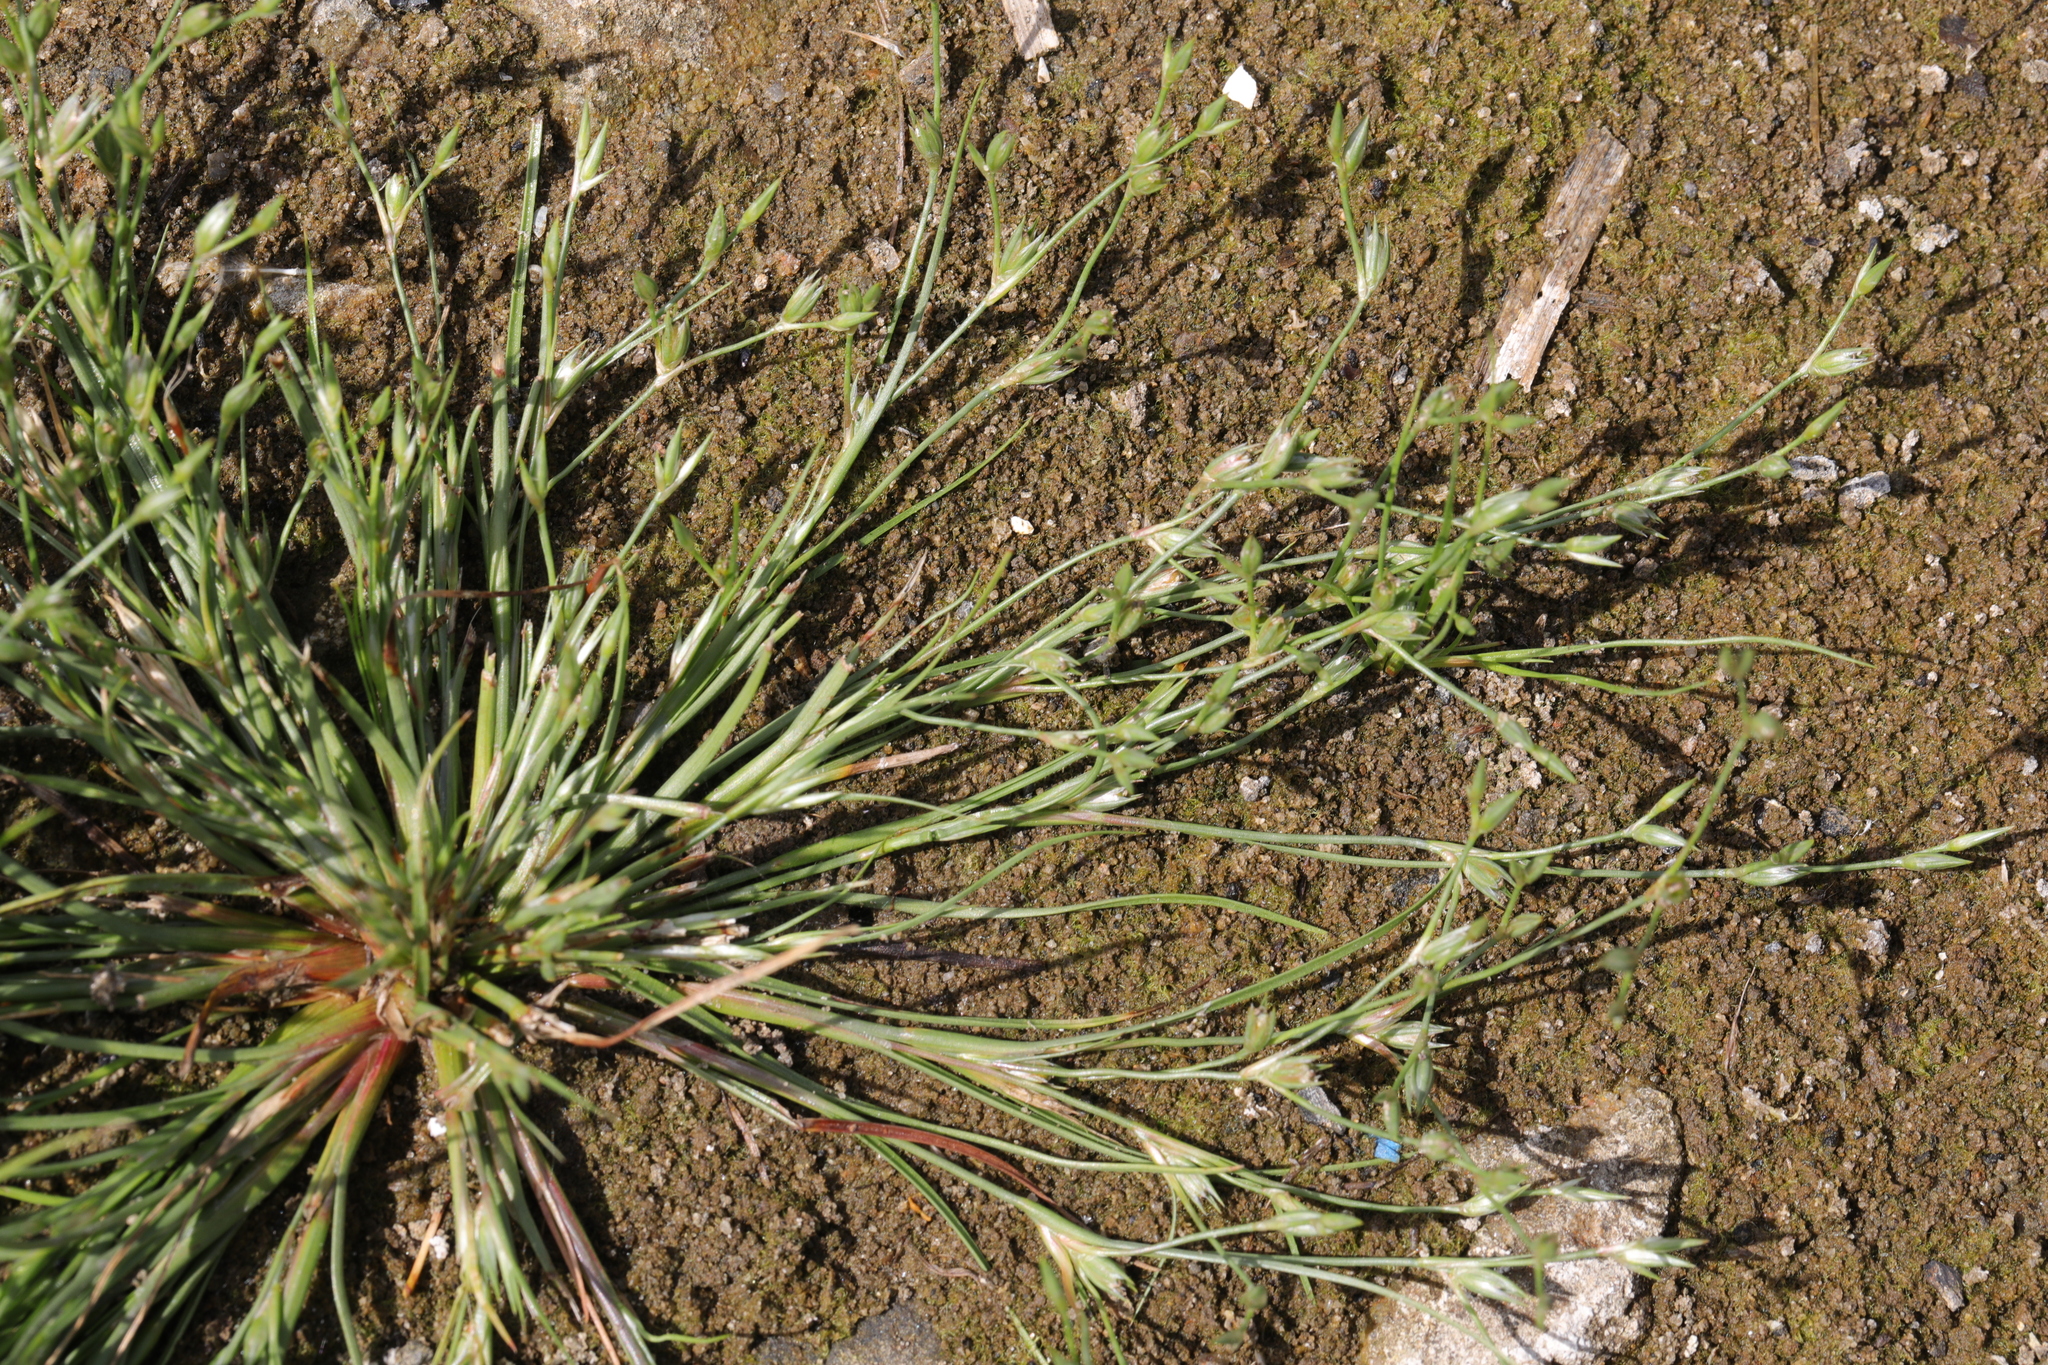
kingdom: Plantae
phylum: Tracheophyta
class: Liliopsida
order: Poales
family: Juncaceae
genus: Juncus
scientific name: Juncus bufonius
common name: Toad rush
